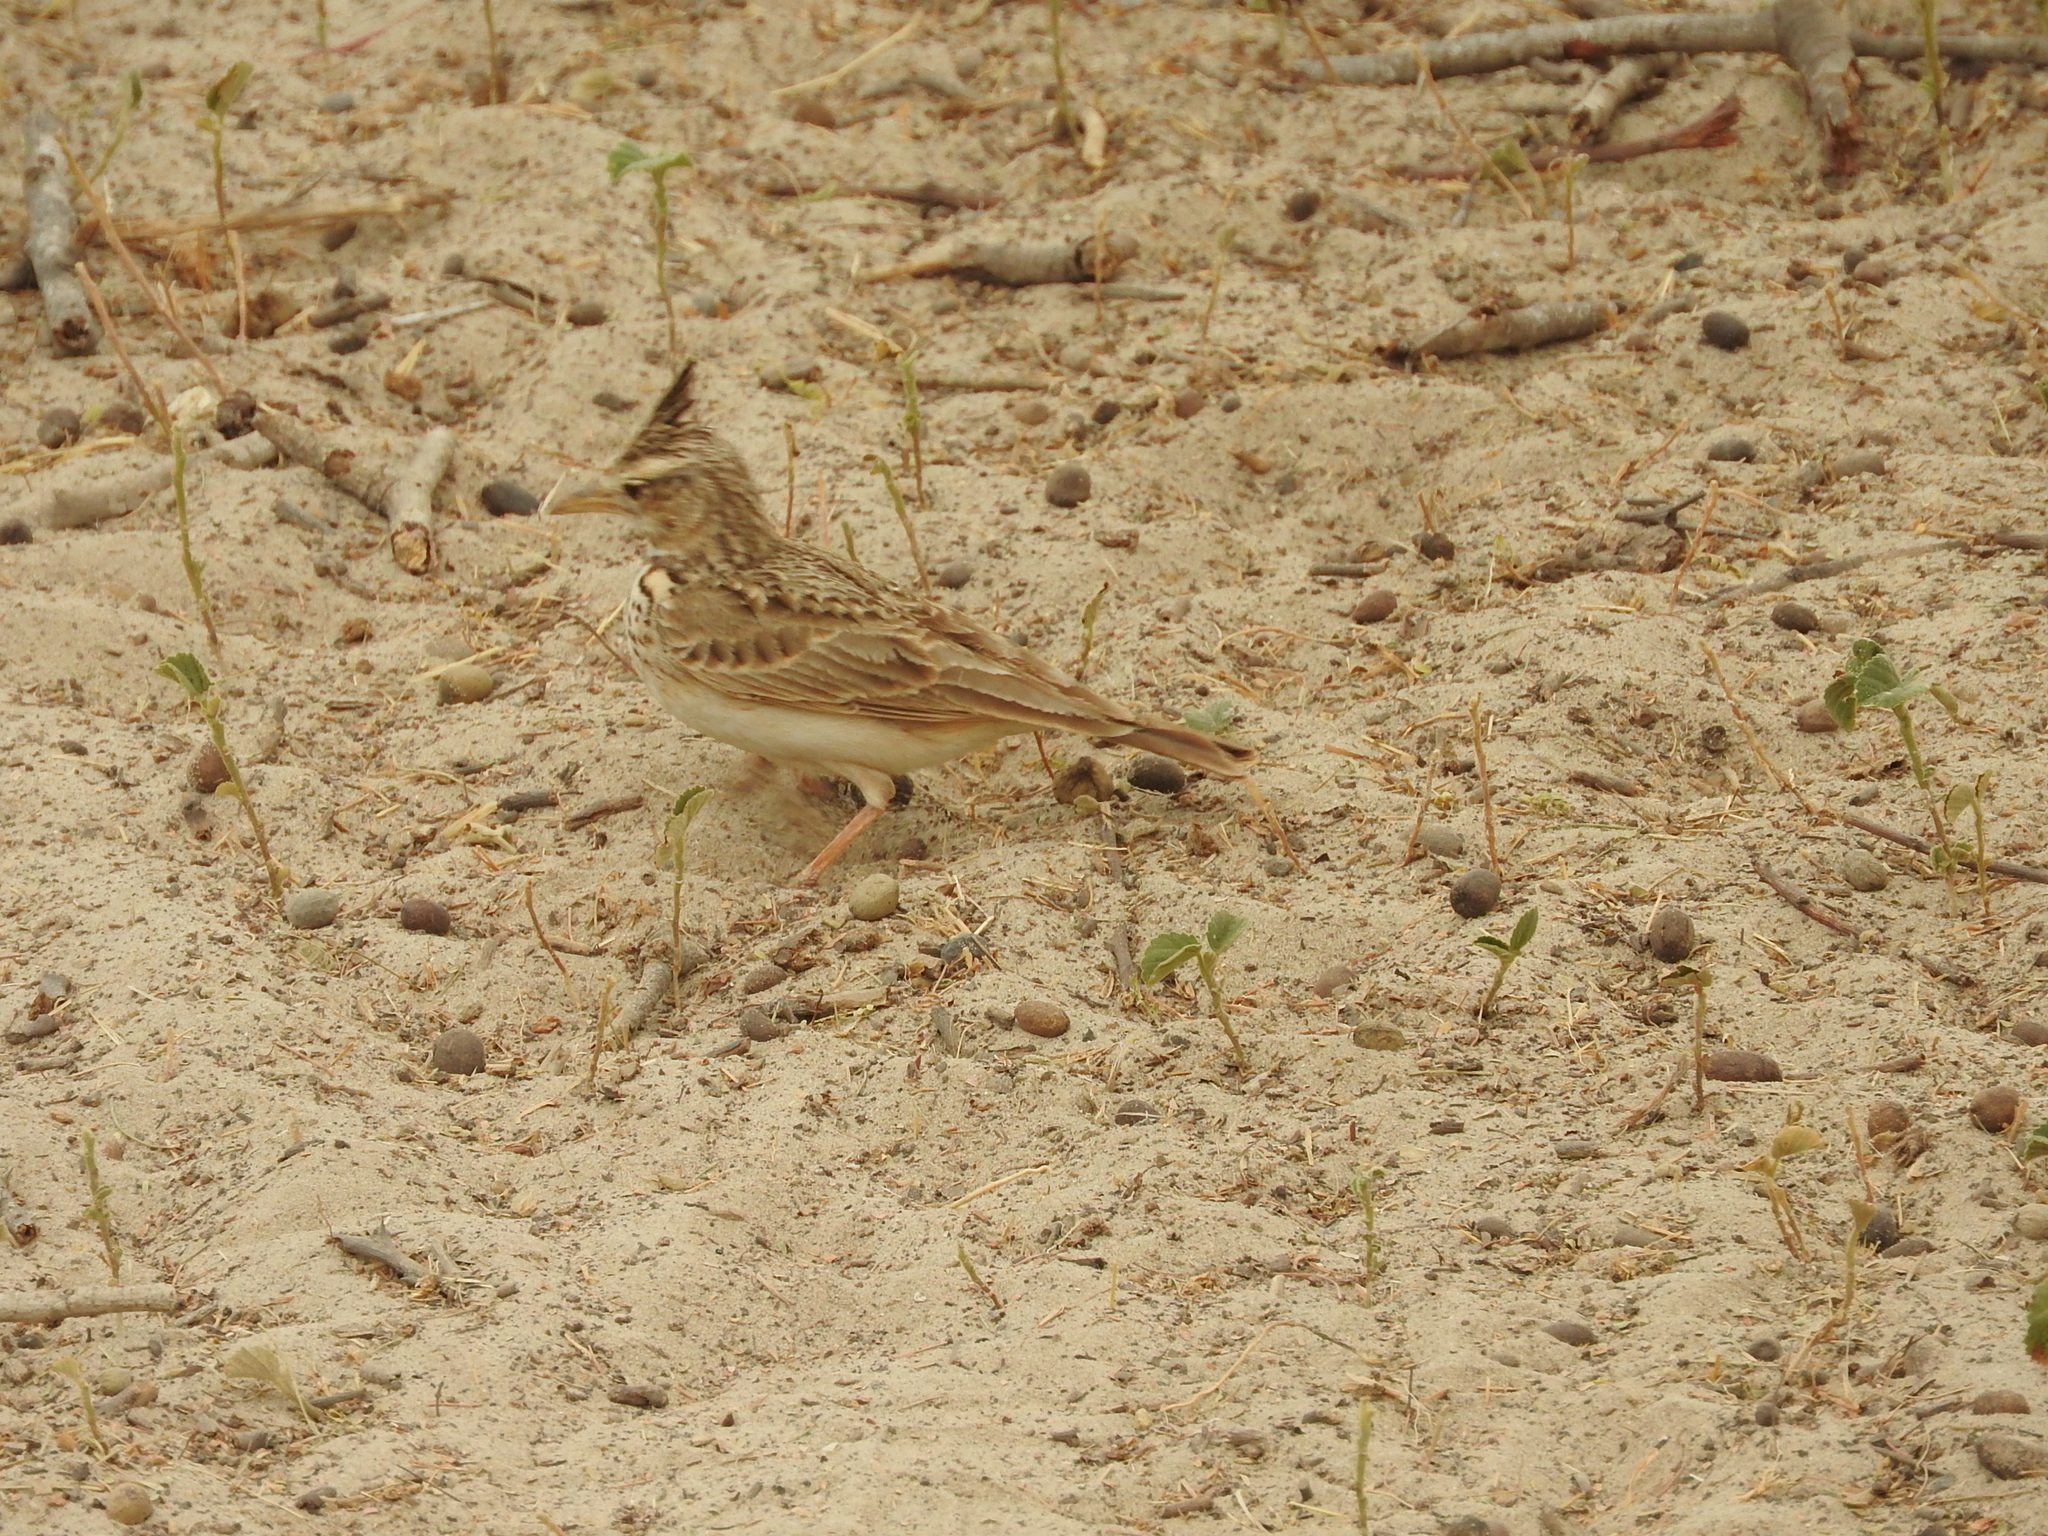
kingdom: Animalia
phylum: Chordata
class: Aves
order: Passeriformes
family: Alaudidae
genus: Galerida
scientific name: Galerida cristata
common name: Crested lark
